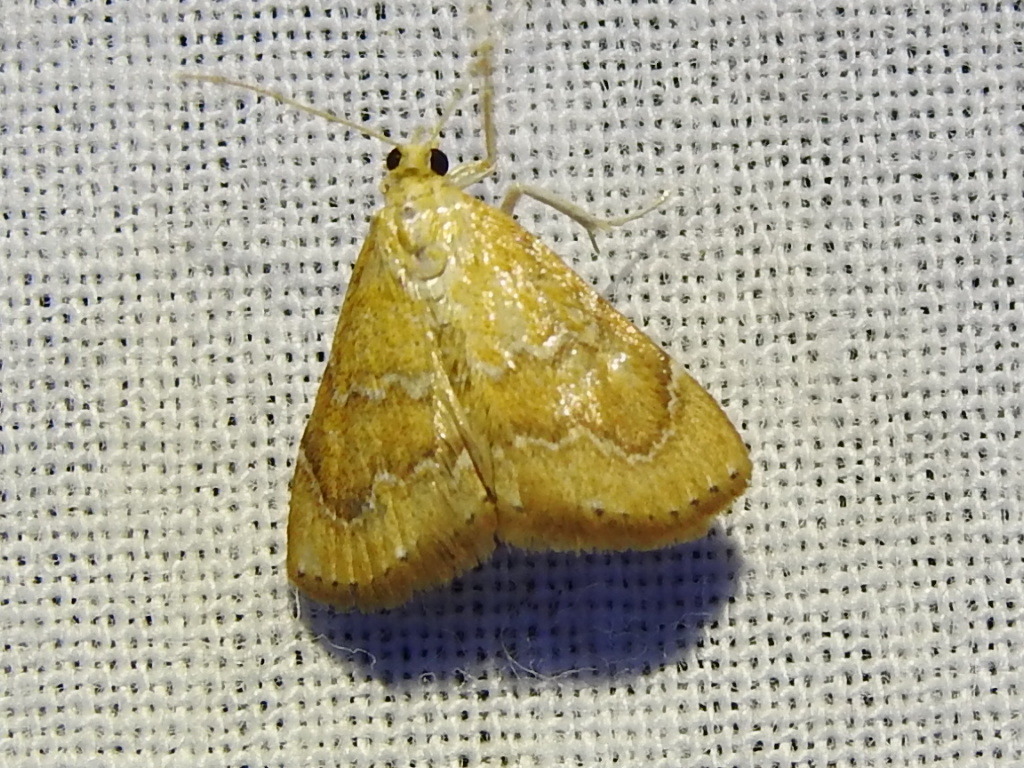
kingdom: Animalia
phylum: Arthropoda
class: Insecta
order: Lepidoptera
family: Crambidae
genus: Glaphyria
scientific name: Glaphyria sesquistrialis
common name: White-roped glaphyria
